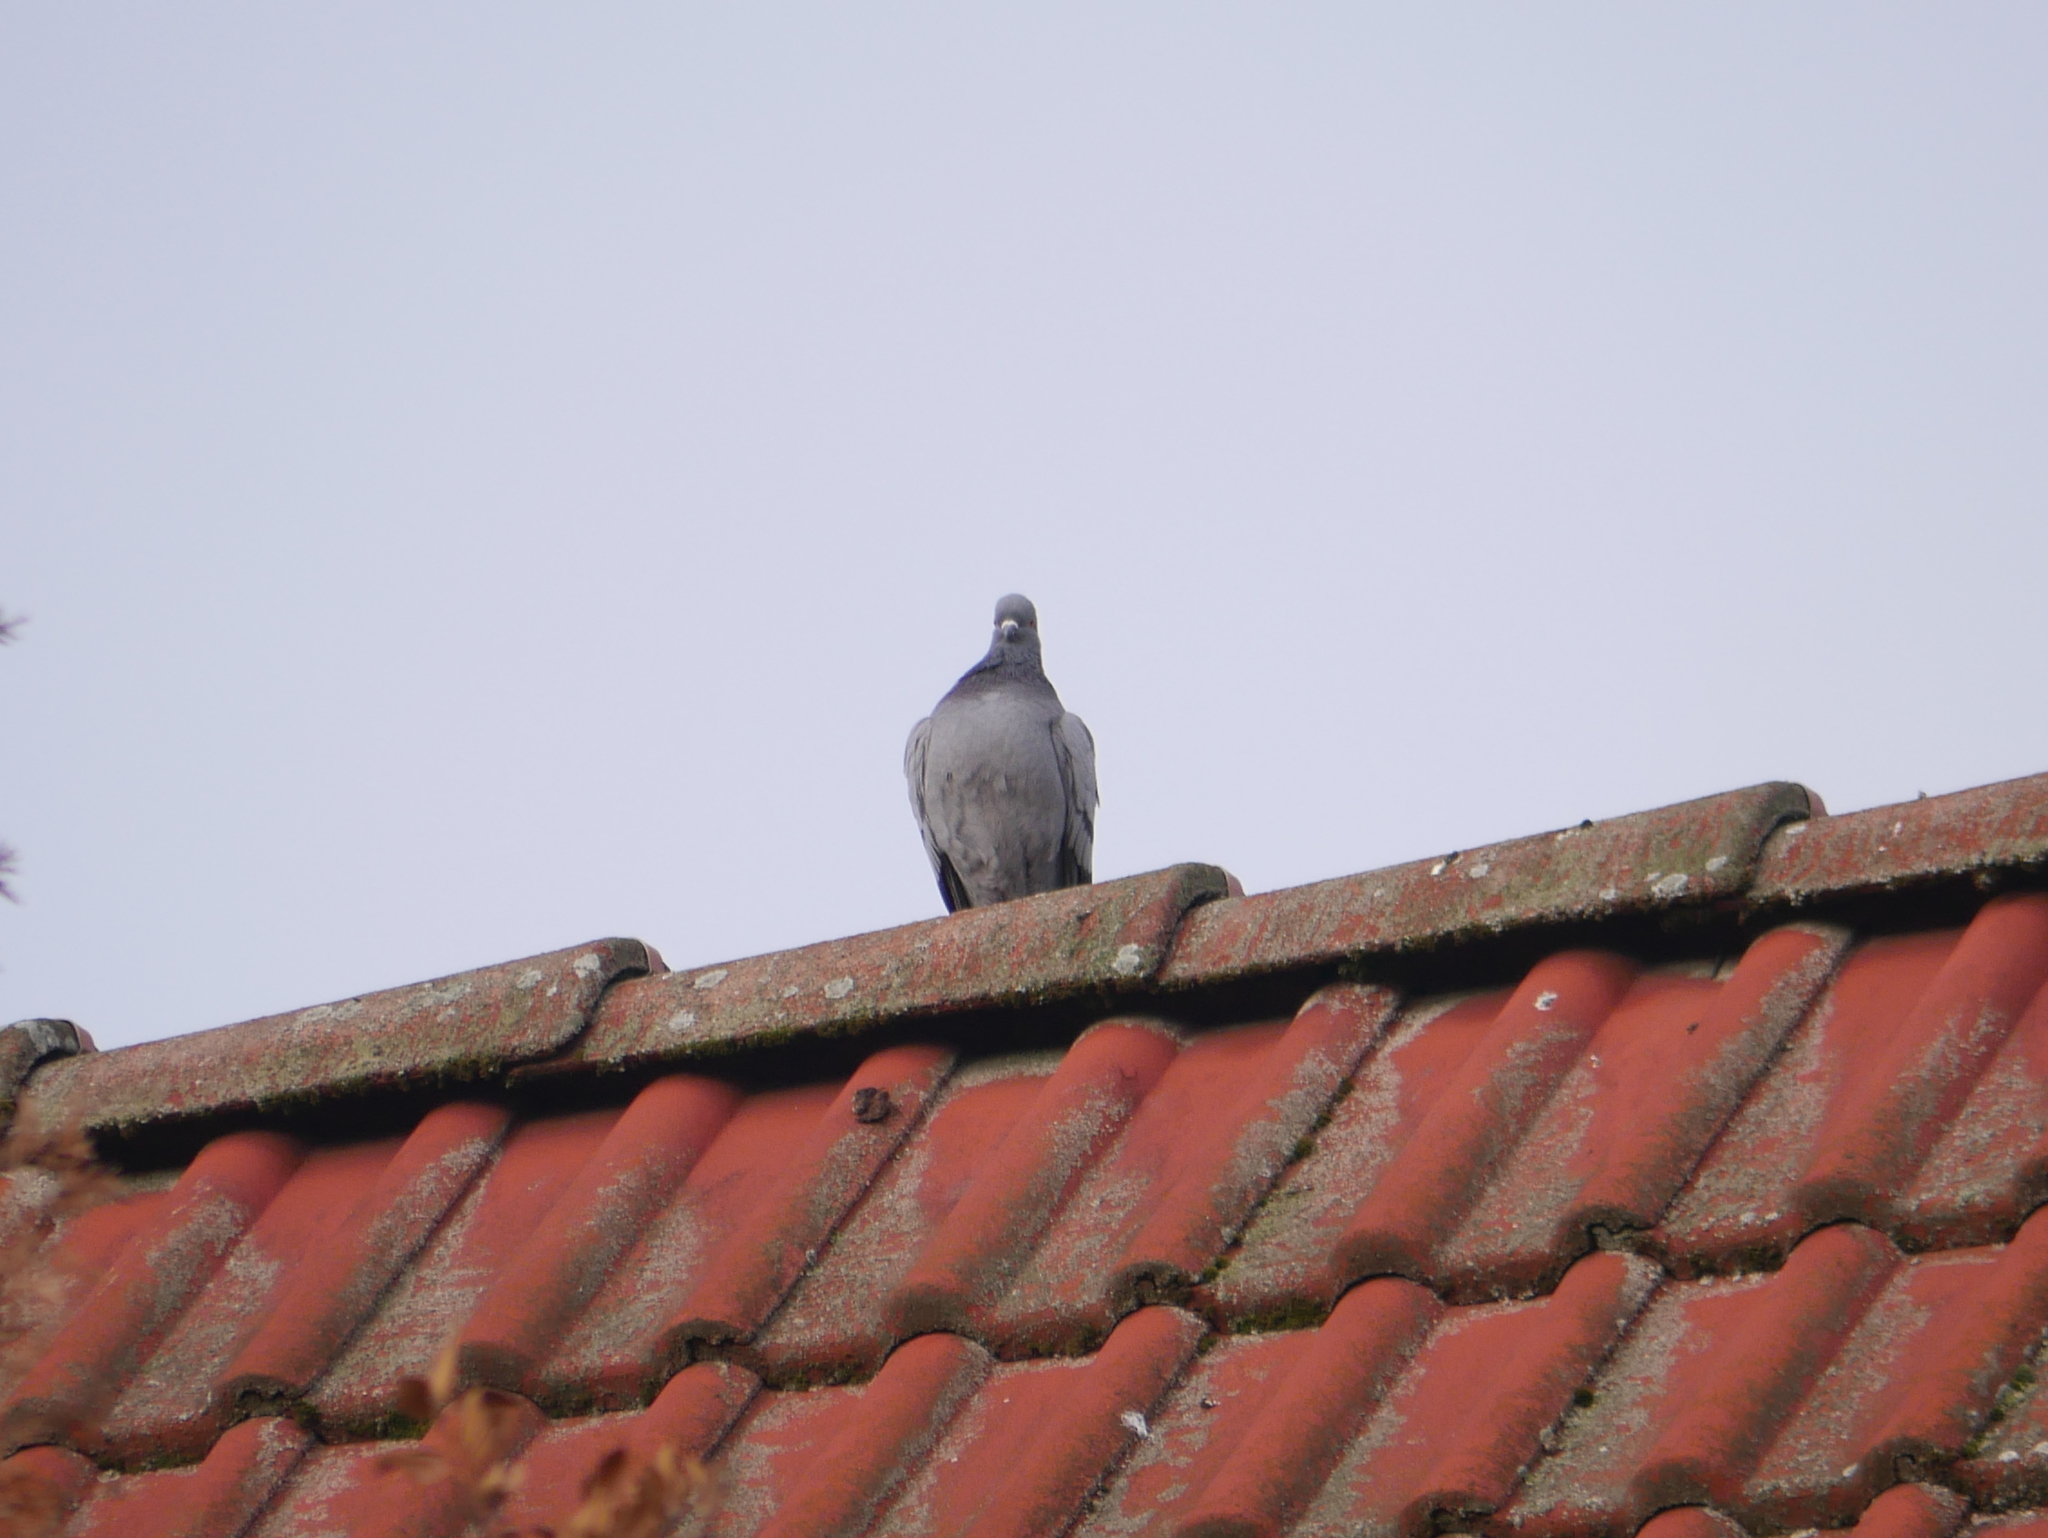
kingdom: Animalia
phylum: Chordata
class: Aves
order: Columbiformes
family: Columbidae
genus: Columba
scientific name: Columba livia
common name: Rock pigeon
